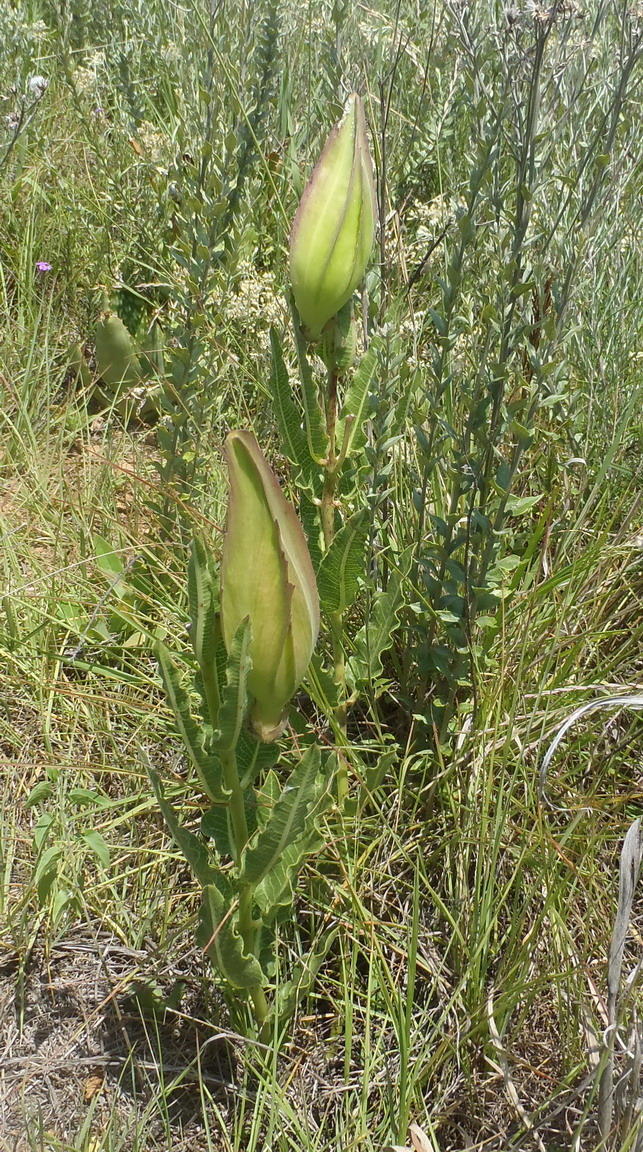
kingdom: Plantae
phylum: Tracheophyta
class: Magnoliopsida
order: Gentianales
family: Apocynaceae
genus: Pachycarpus
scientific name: Pachycarpus schinzianus
